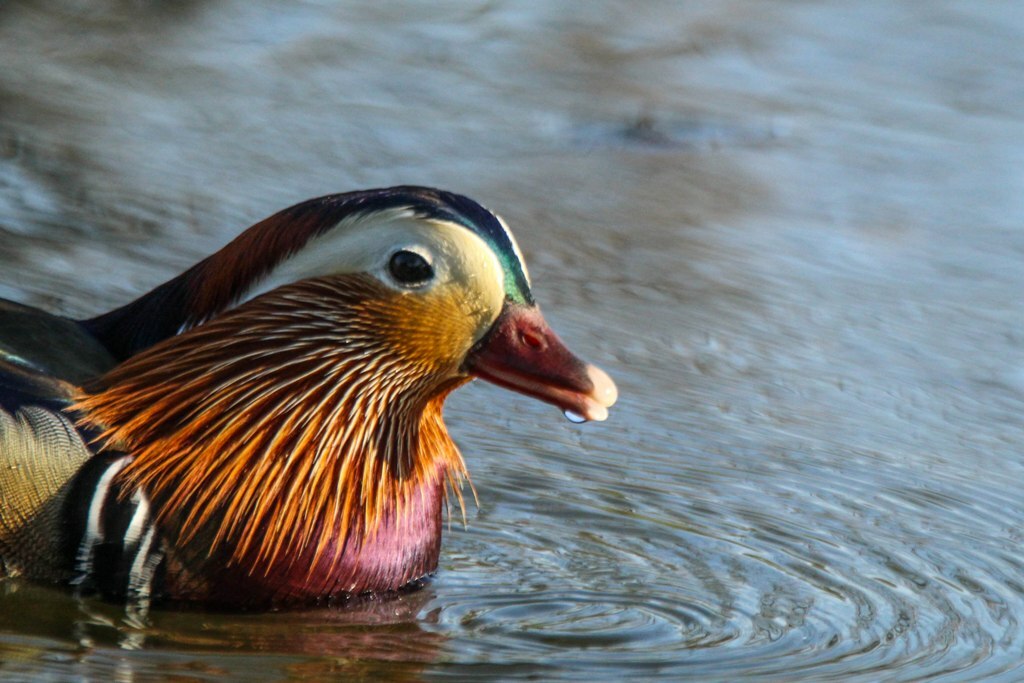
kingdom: Animalia
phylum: Chordata
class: Aves
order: Anseriformes
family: Anatidae
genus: Aix
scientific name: Aix galericulata
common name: Mandarin duck
